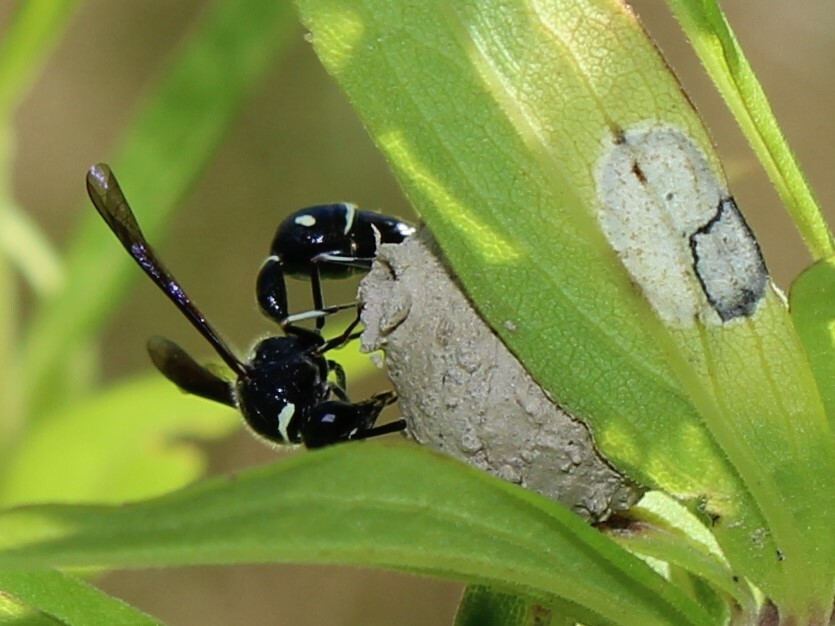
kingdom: Animalia
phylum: Arthropoda
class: Insecta
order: Hymenoptera
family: Vespidae
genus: Eumenes
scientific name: Eumenes fraternus
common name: Fraternal potter wasp
